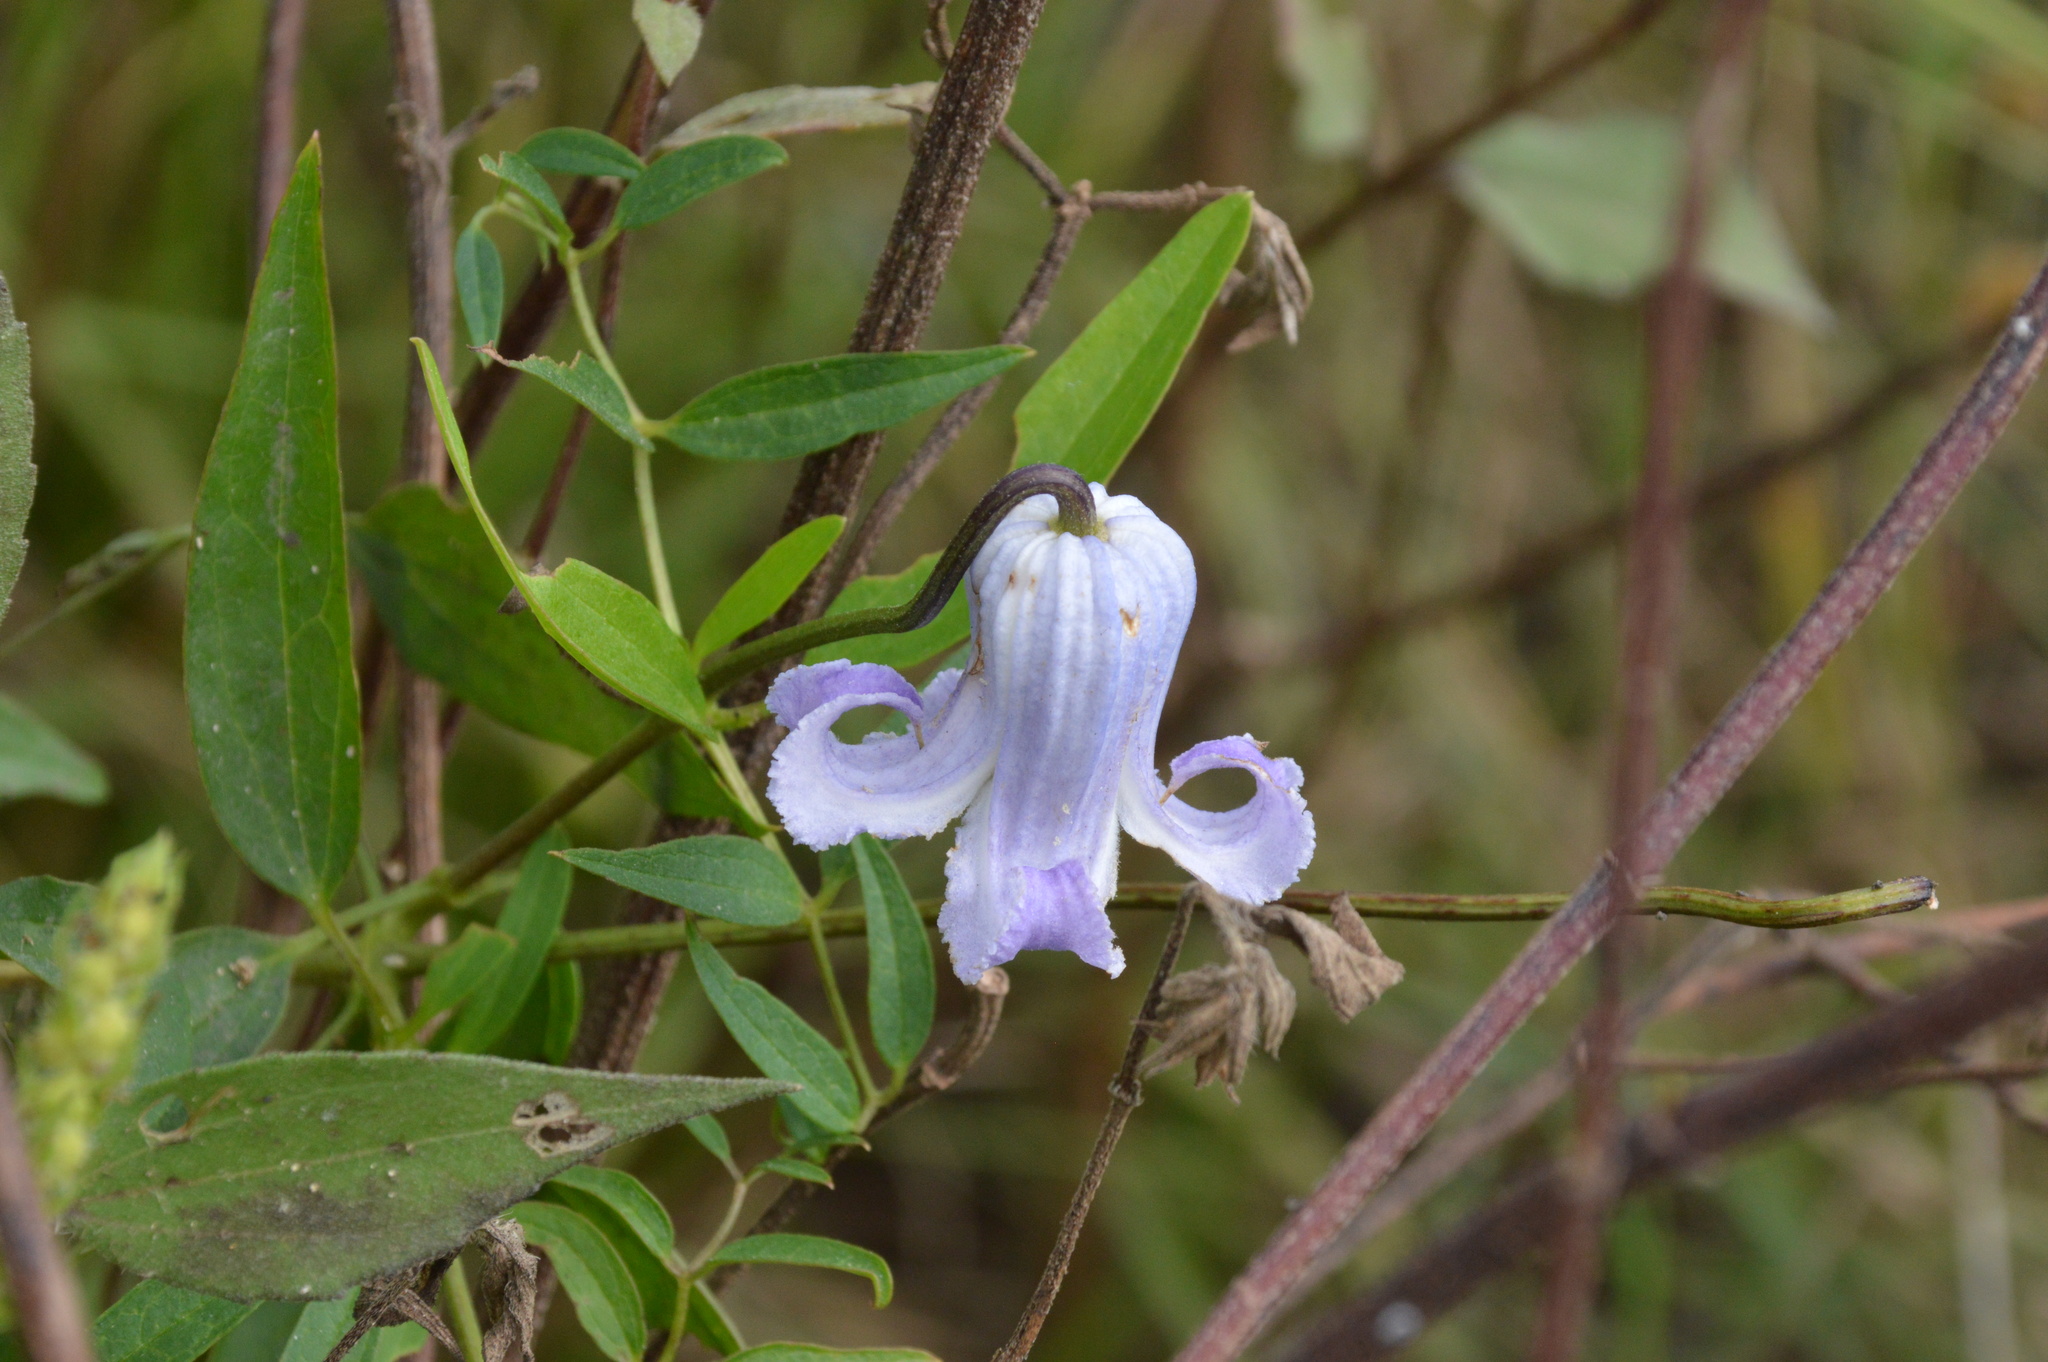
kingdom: Plantae
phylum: Tracheophyta
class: Magnoliopsida
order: Ranunculales
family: Ranunculaceae
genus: Clematis
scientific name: Clematis crispa
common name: Curly clematis
